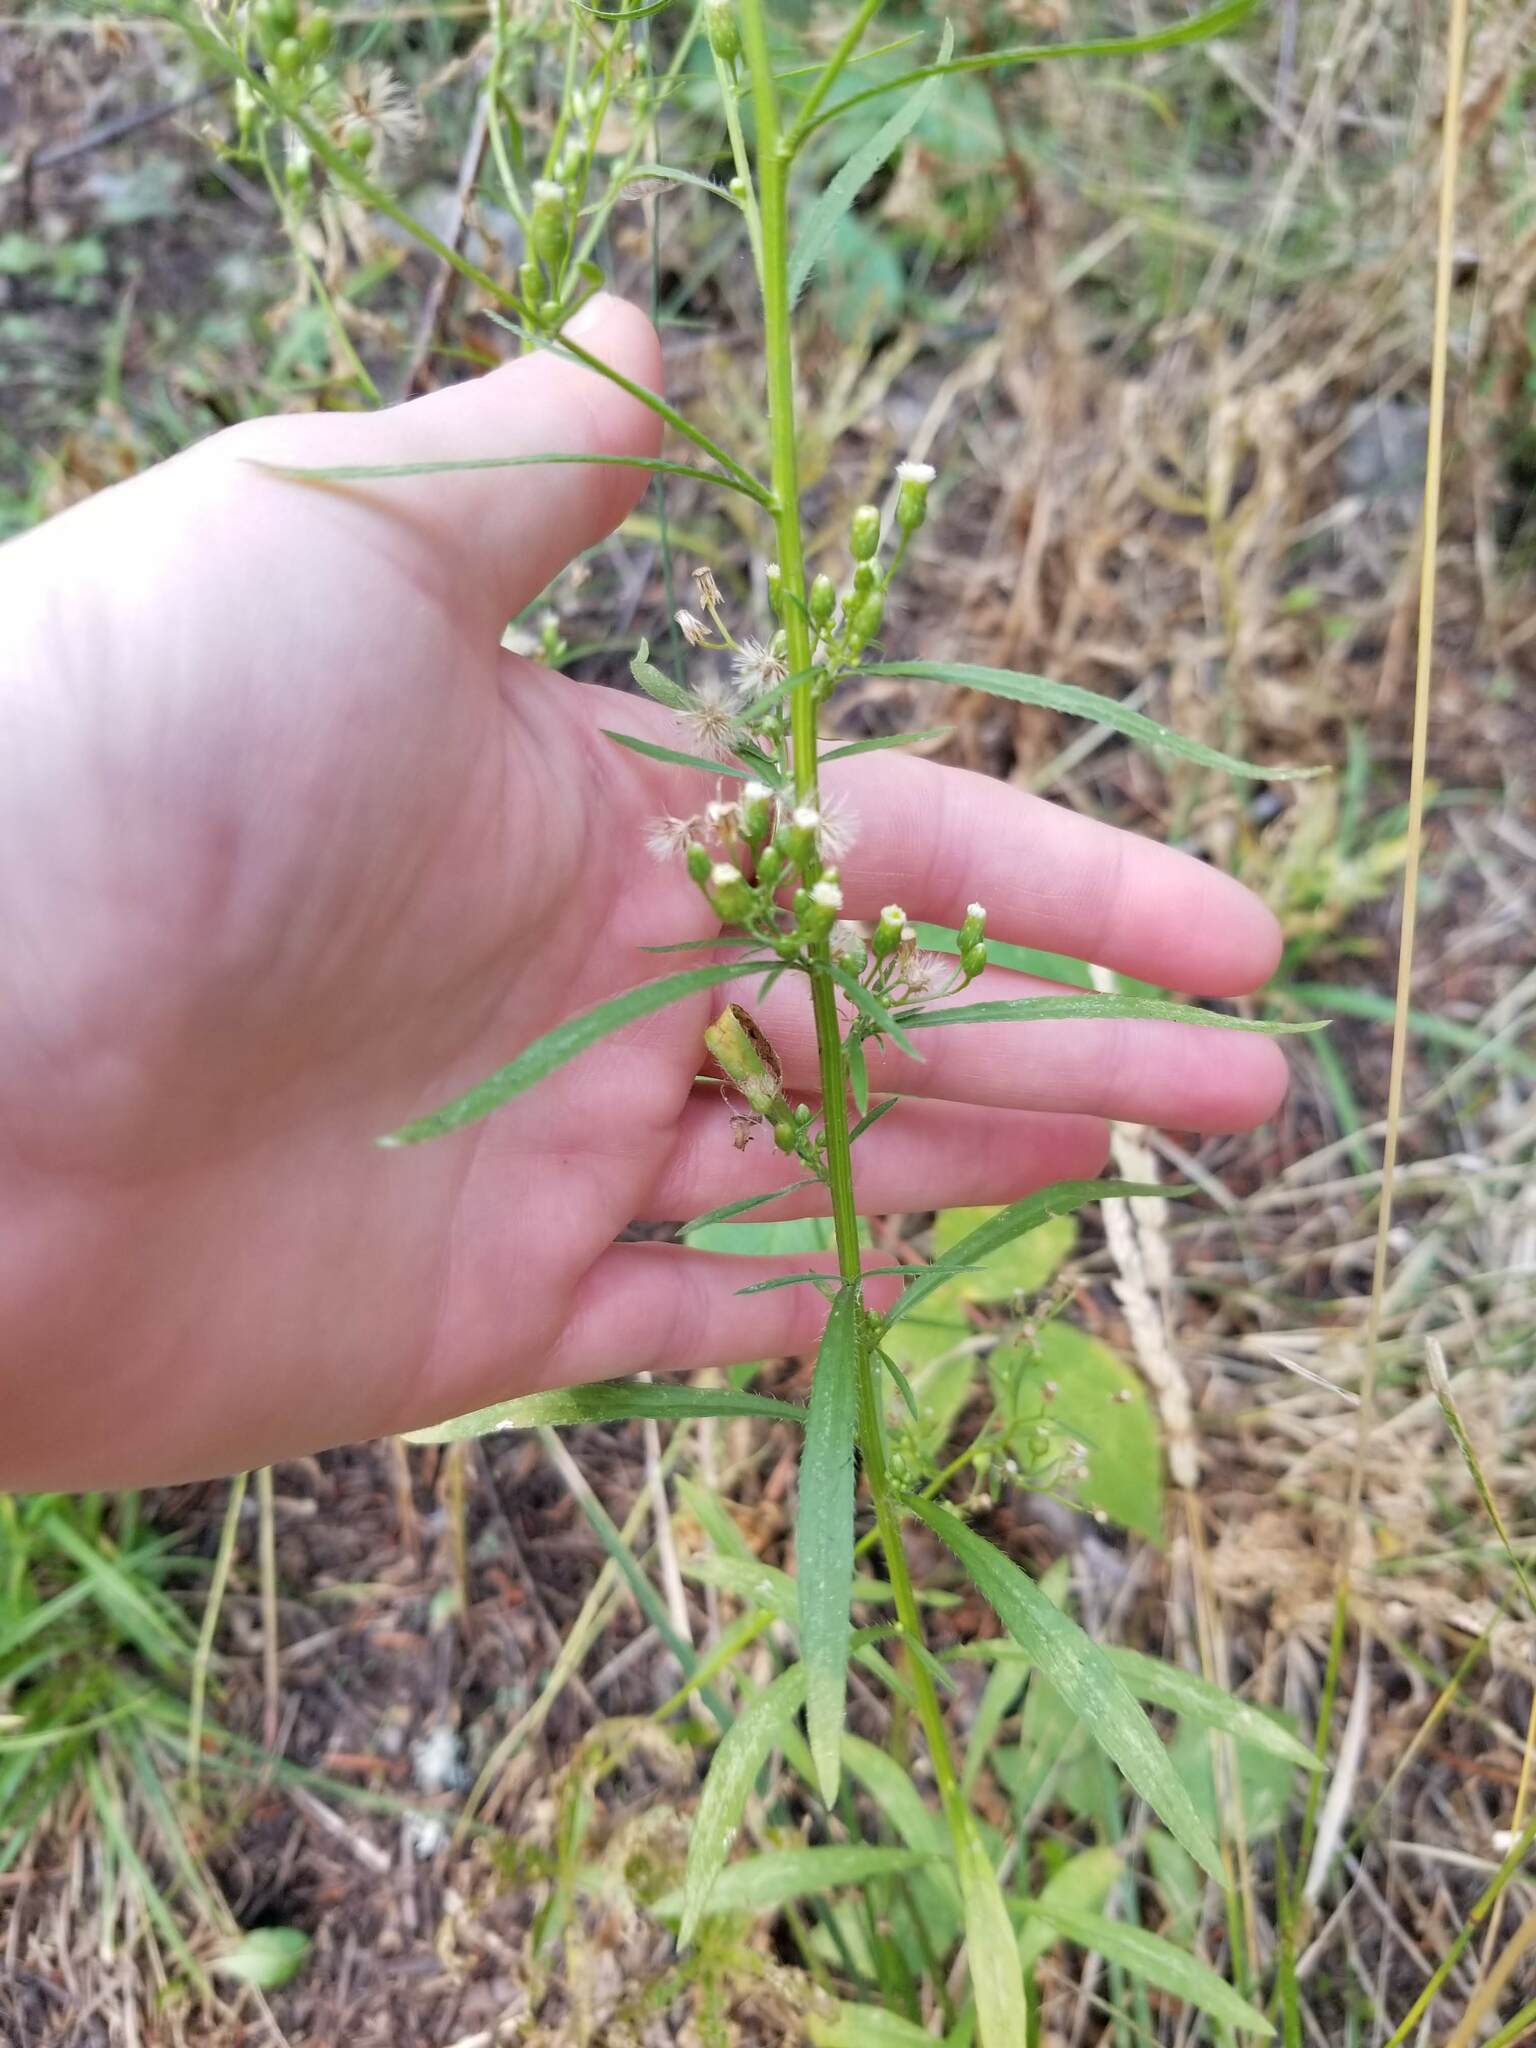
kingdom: Plantae
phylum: Tracheophyta
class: Magnoliopsida
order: Asterales
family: Asteraceae
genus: Erigeron
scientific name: Erigeron canadensis
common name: Canadian fleabane
